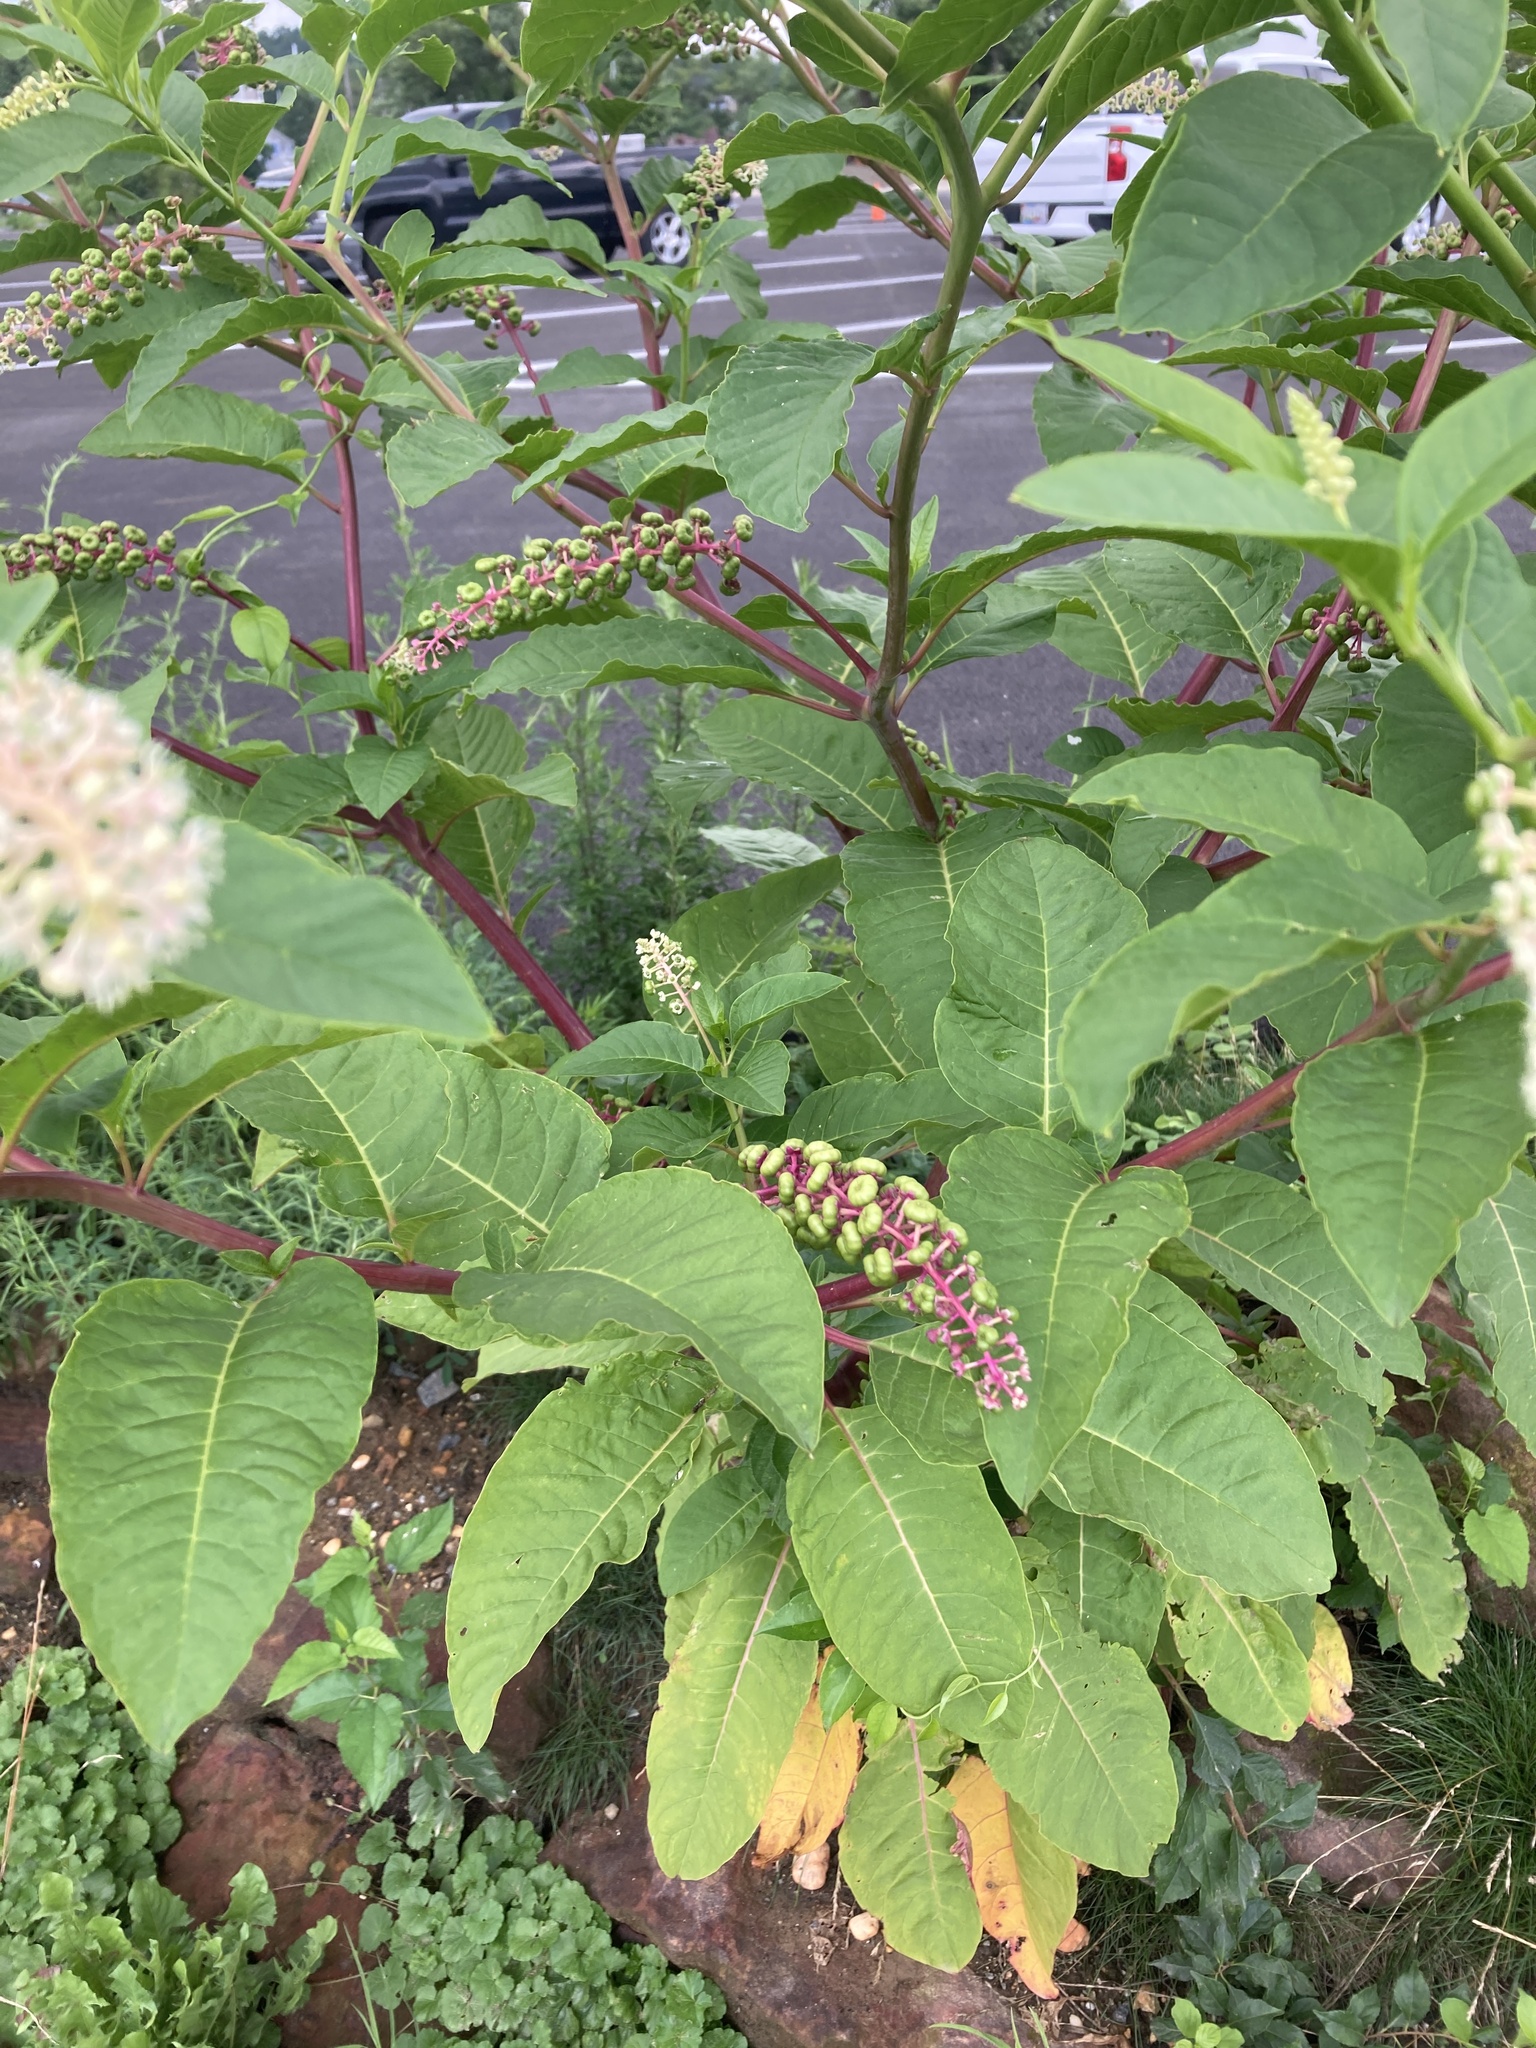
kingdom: Plantae
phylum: Tracheophyta
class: Magnoliopsida
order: Caryophyllales
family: Phytolaccaceae
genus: Phytolacca
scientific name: Phytolacca americana
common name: American pokeweed
